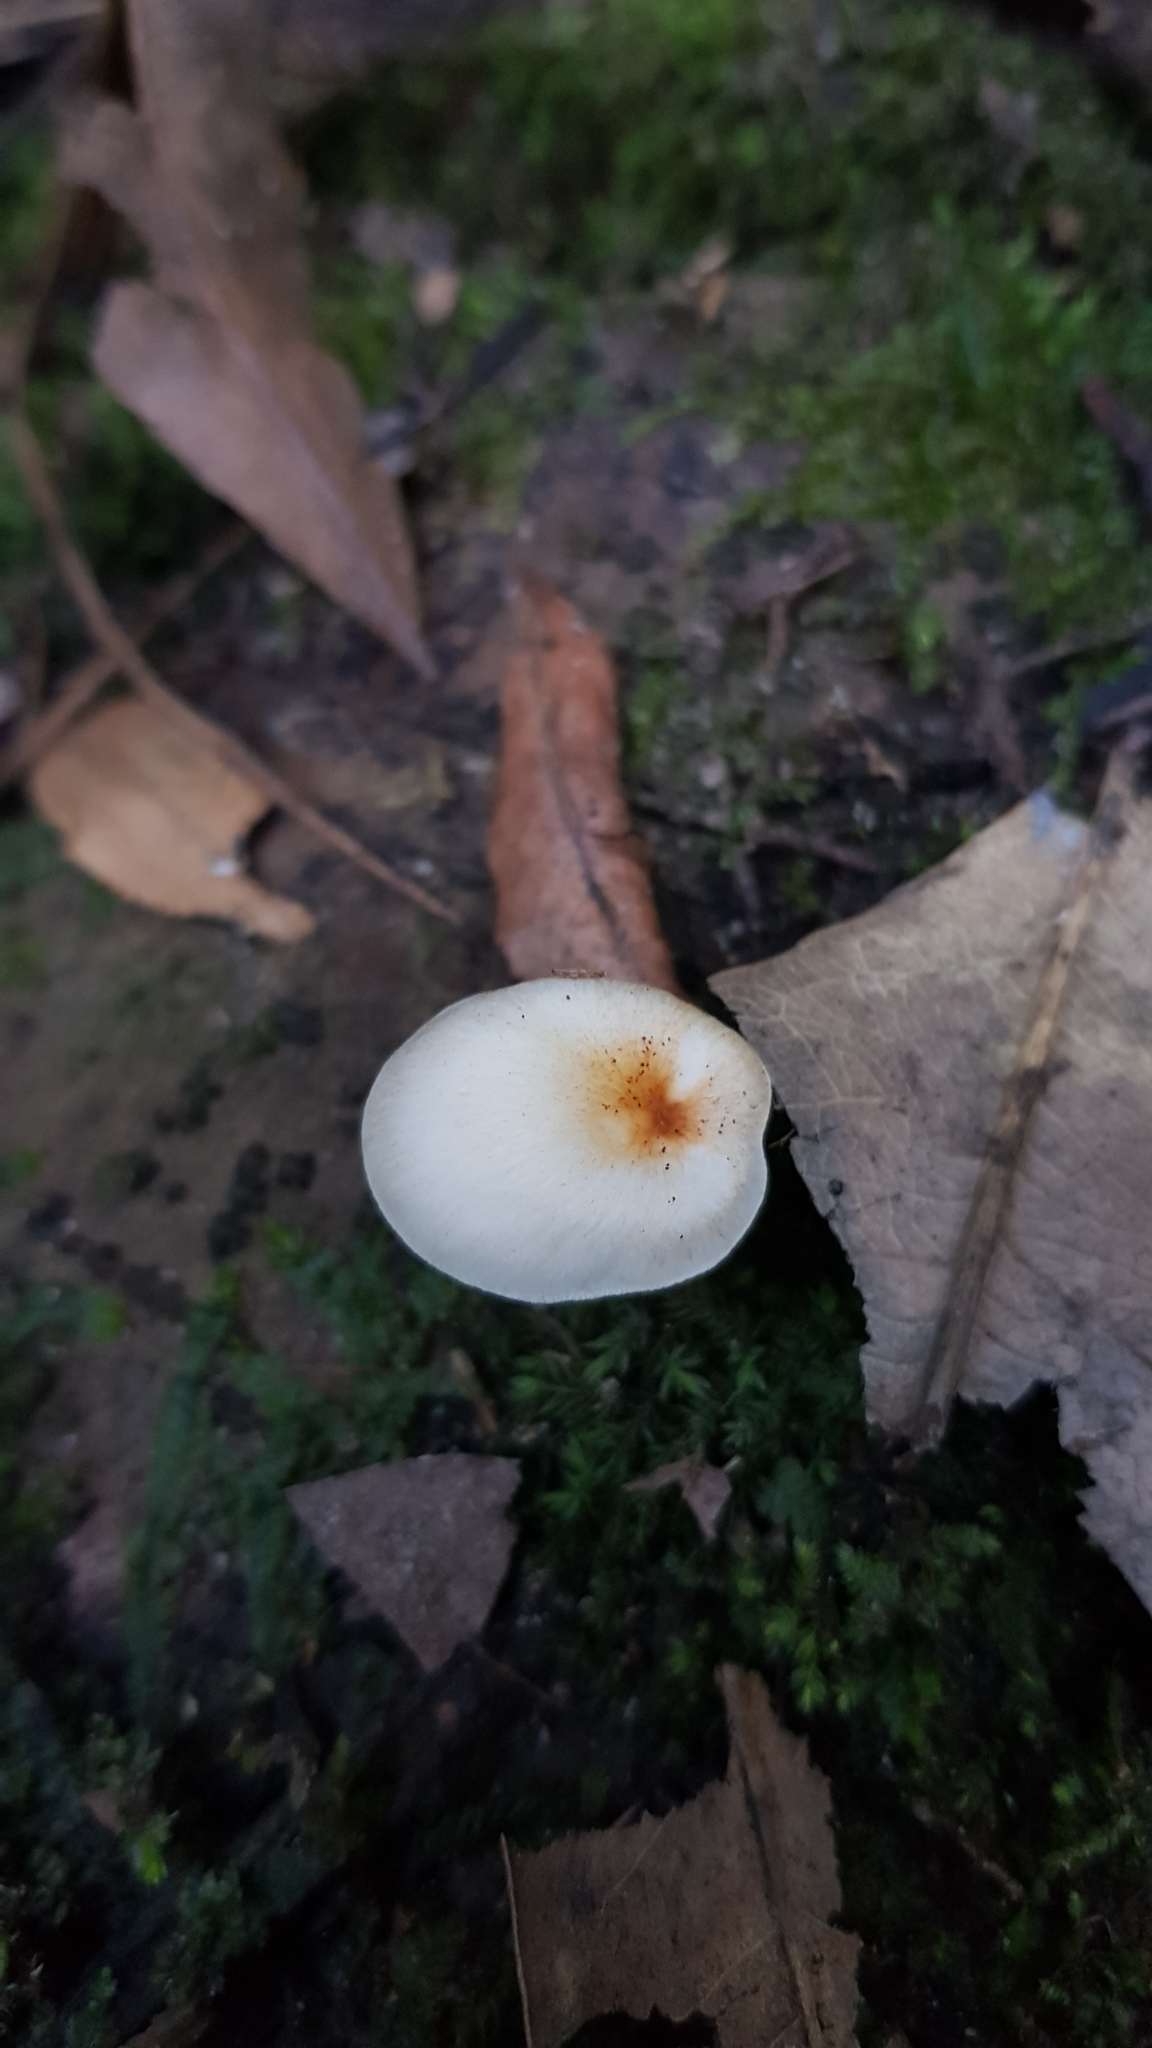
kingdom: Fungi
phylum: Basidiomycota
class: Agaricomycetes
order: Agaricales
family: Omphalotaceae
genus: Omphalotus
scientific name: Omphalotus nidiformis
